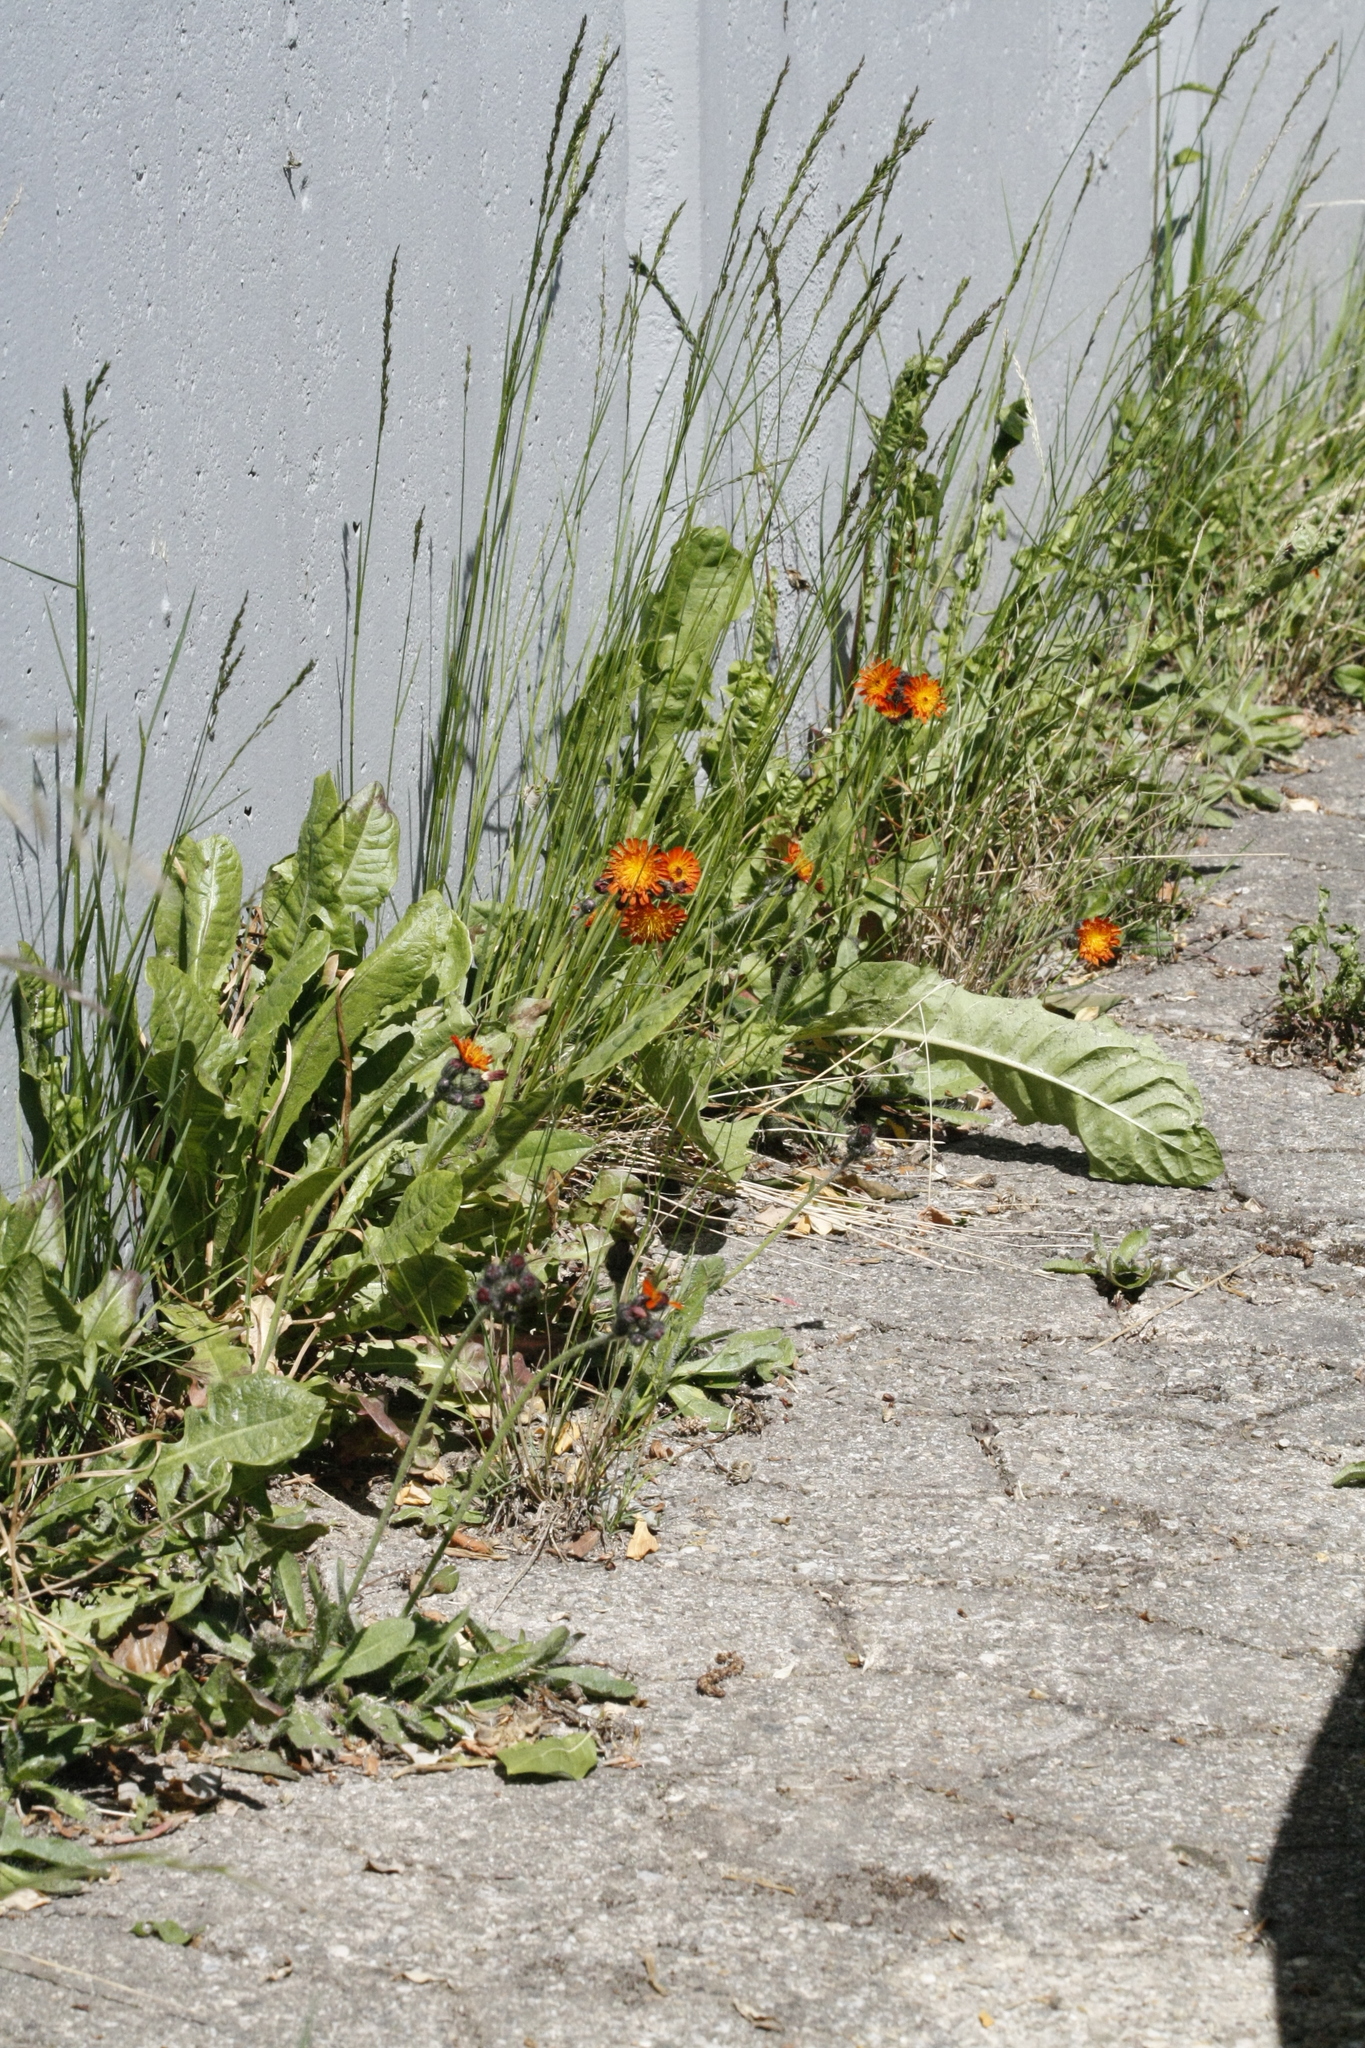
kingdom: Plantae
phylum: Tracheophyta
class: Magnoliopsida
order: Asterales
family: Asteraceae
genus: Pilosella
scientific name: Pilosella aurantiaca
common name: Fox-and-cubs
